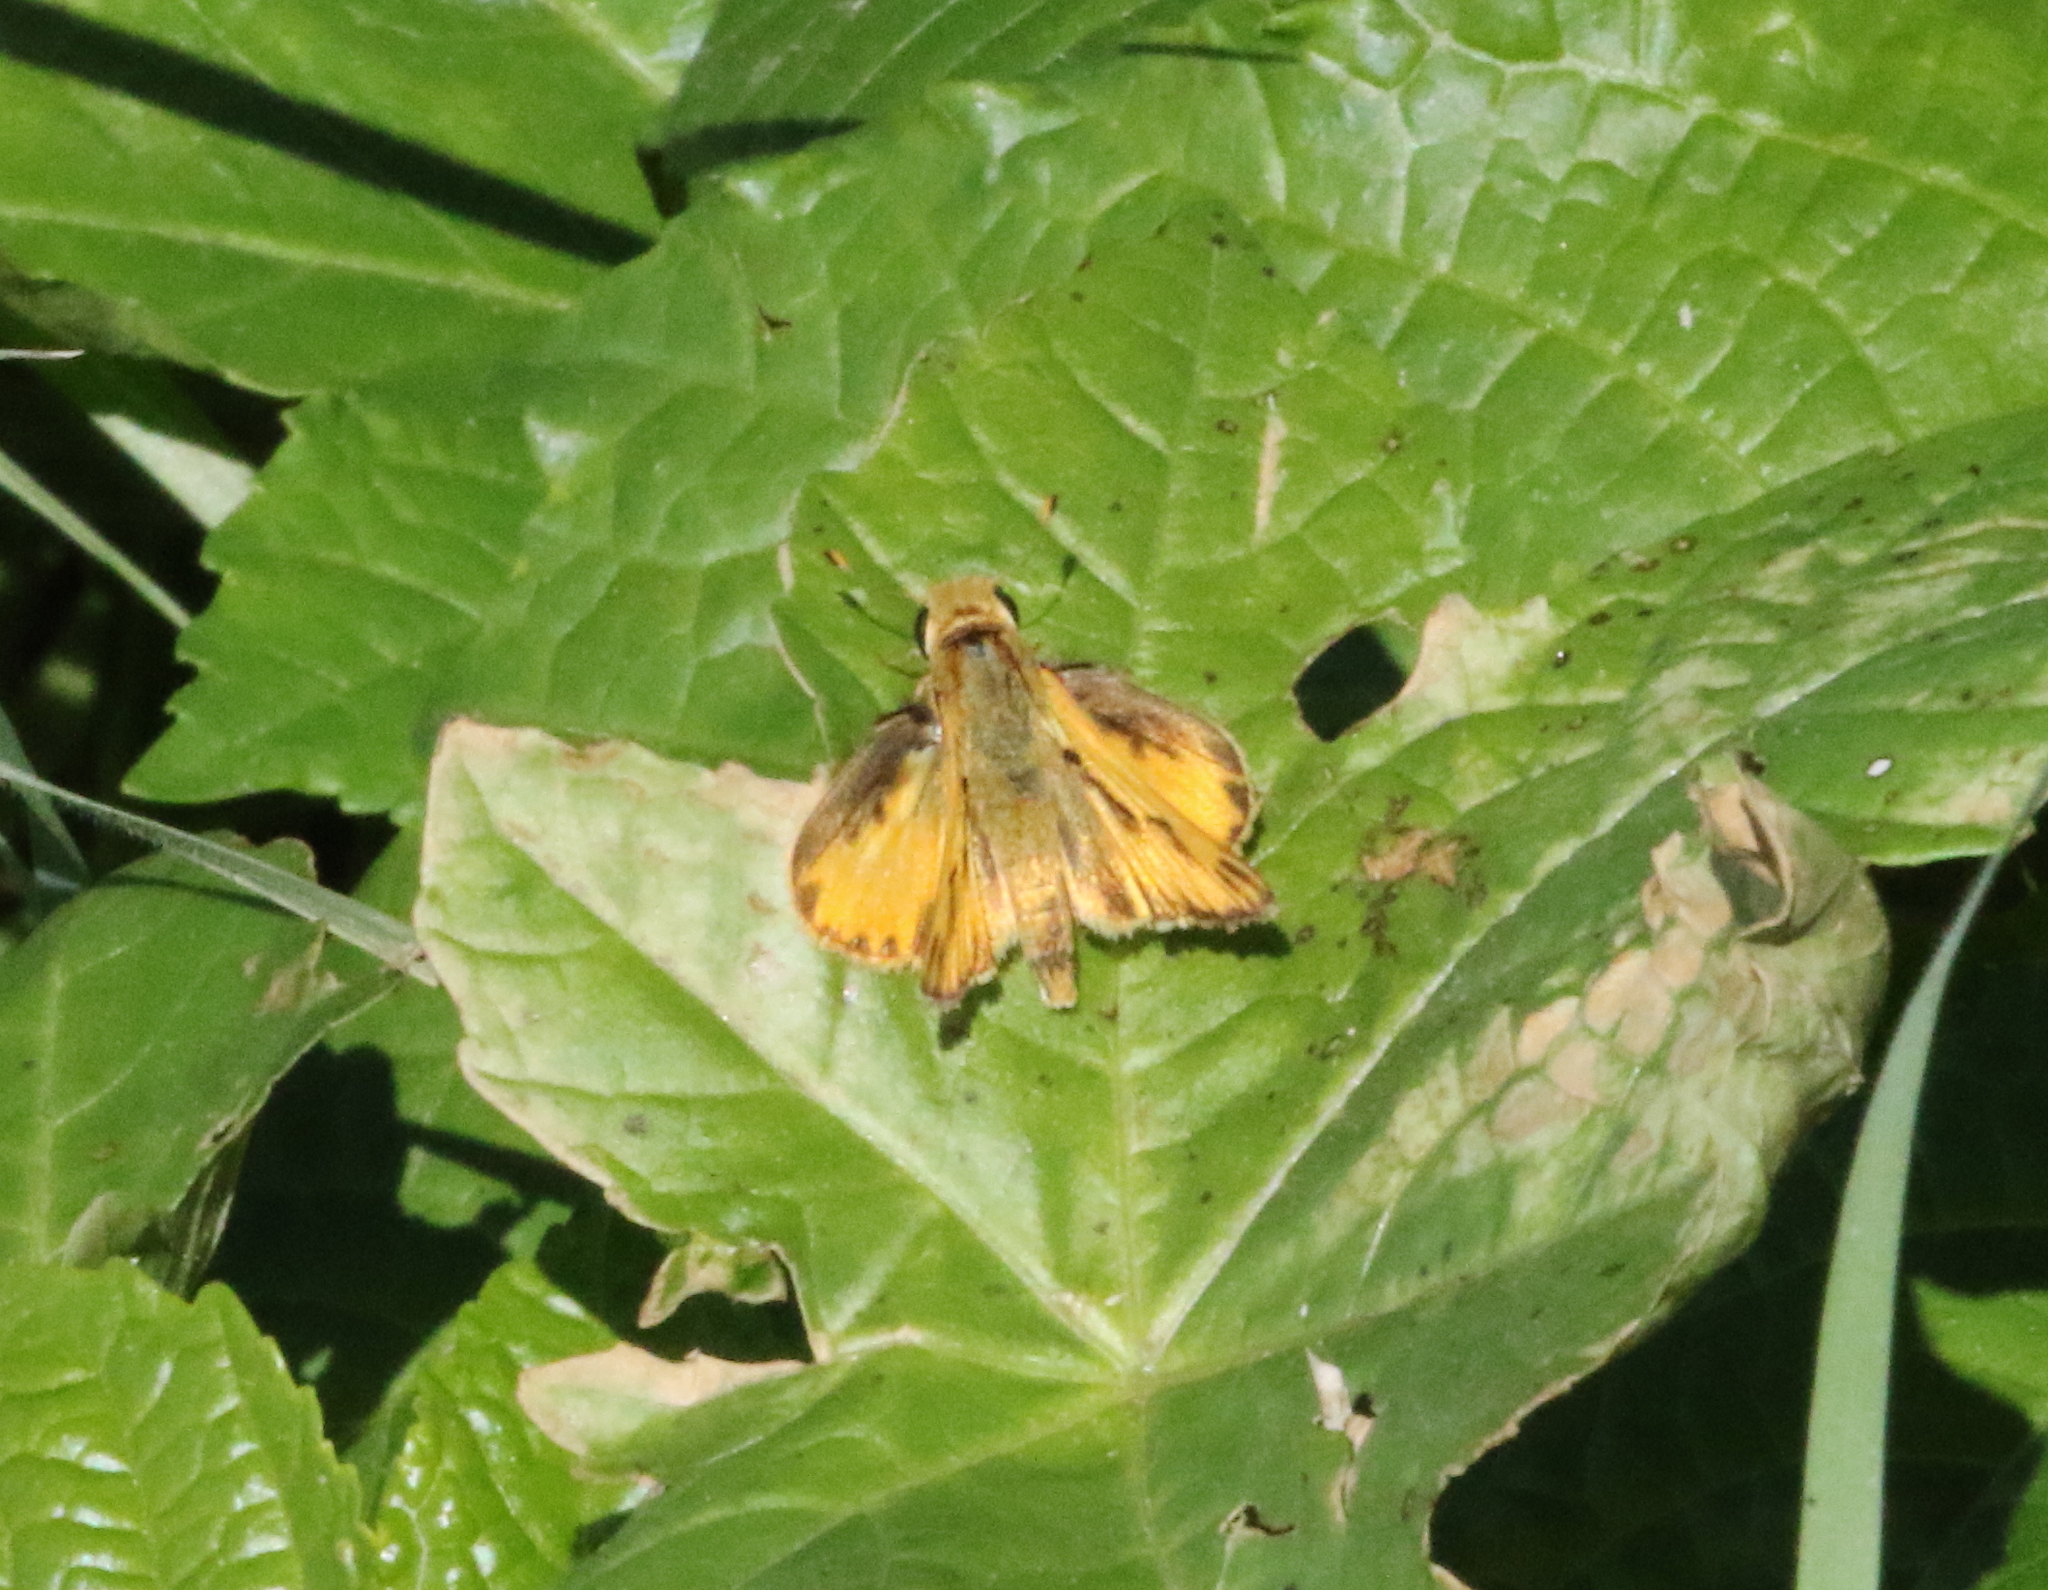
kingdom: Animalia
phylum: Arthropoda
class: Insecta
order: Lepidoptera
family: Hesperiidae
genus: Hylephila
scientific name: Hylephila phyleus
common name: Fiery skipper
